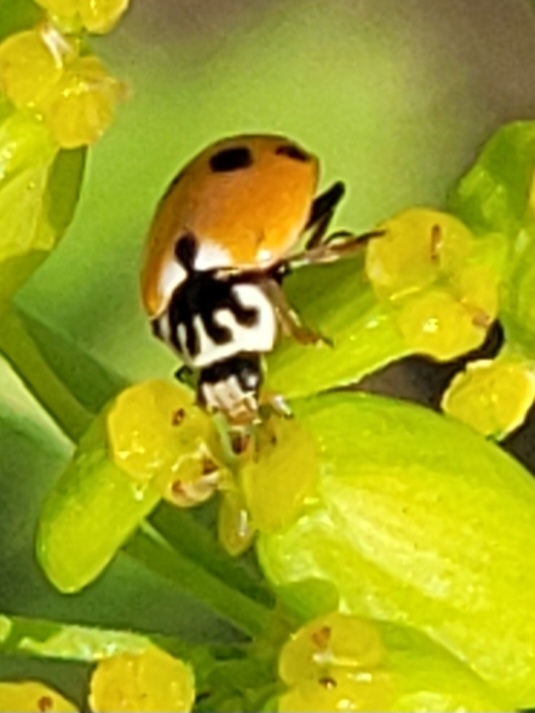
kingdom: Animalia
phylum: Arthropoda
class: Insecta
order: Coleoptera
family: Coccinellidae
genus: Hippodamia
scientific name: Hippodamia variegata
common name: Ladybird beetle
